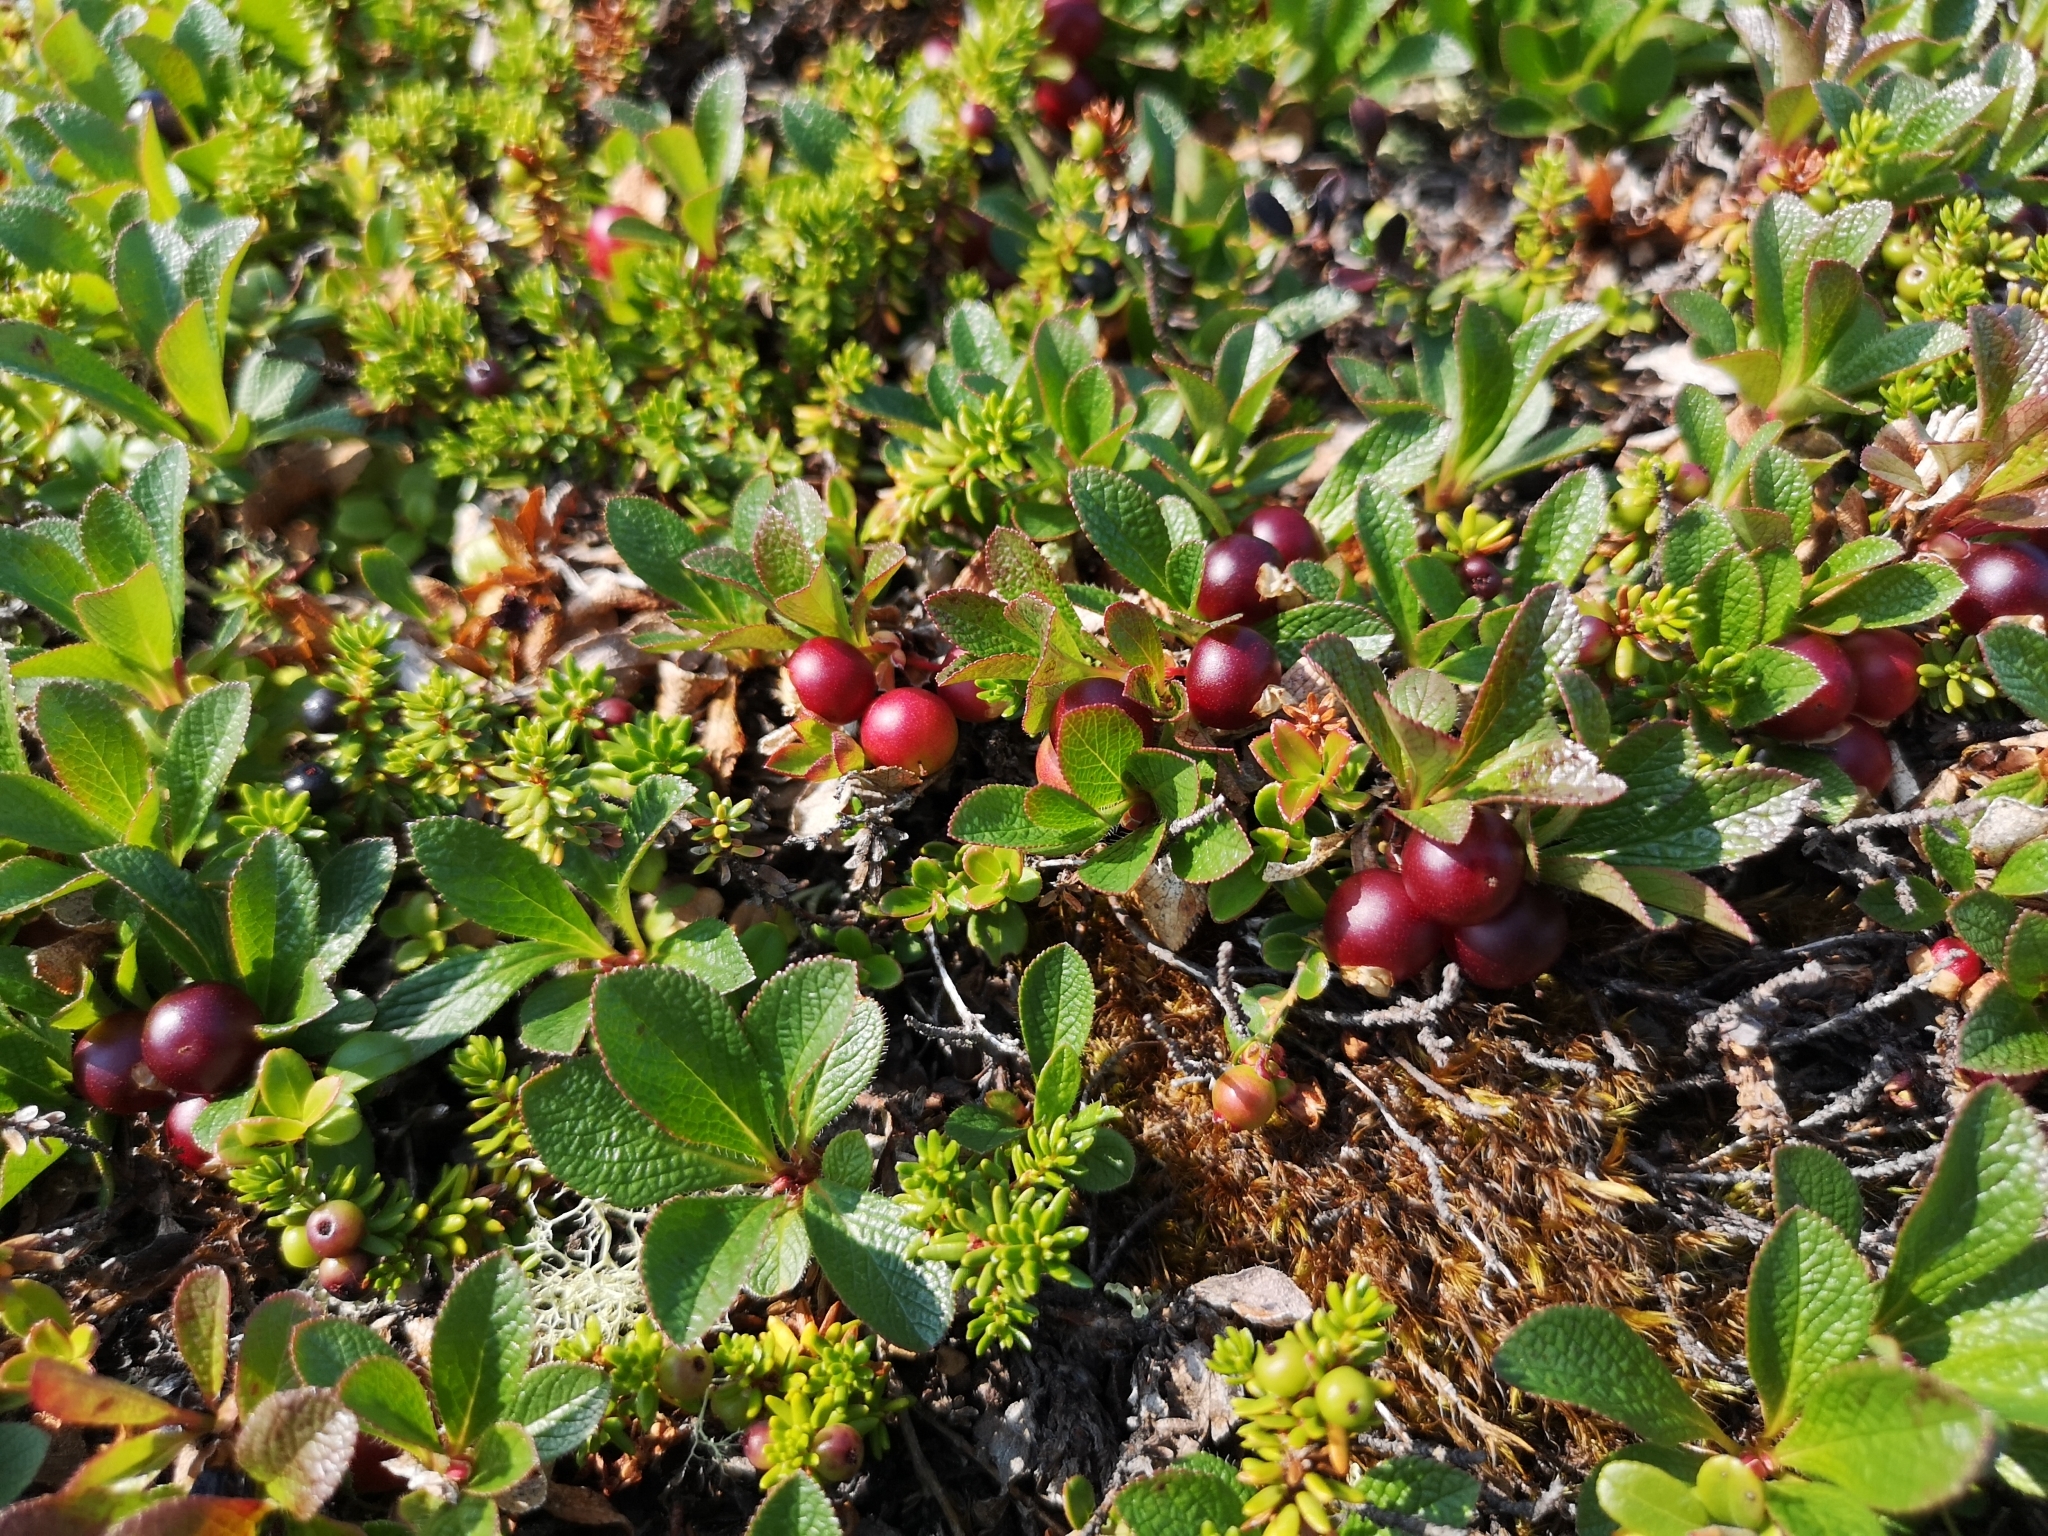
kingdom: Plantae
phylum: Tracheophyta
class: Magnoliopsida
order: Ericales
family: Ericaceae
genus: Arctostaphylos
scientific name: Arctostaphylos alpinus
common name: Alpine bearberry
